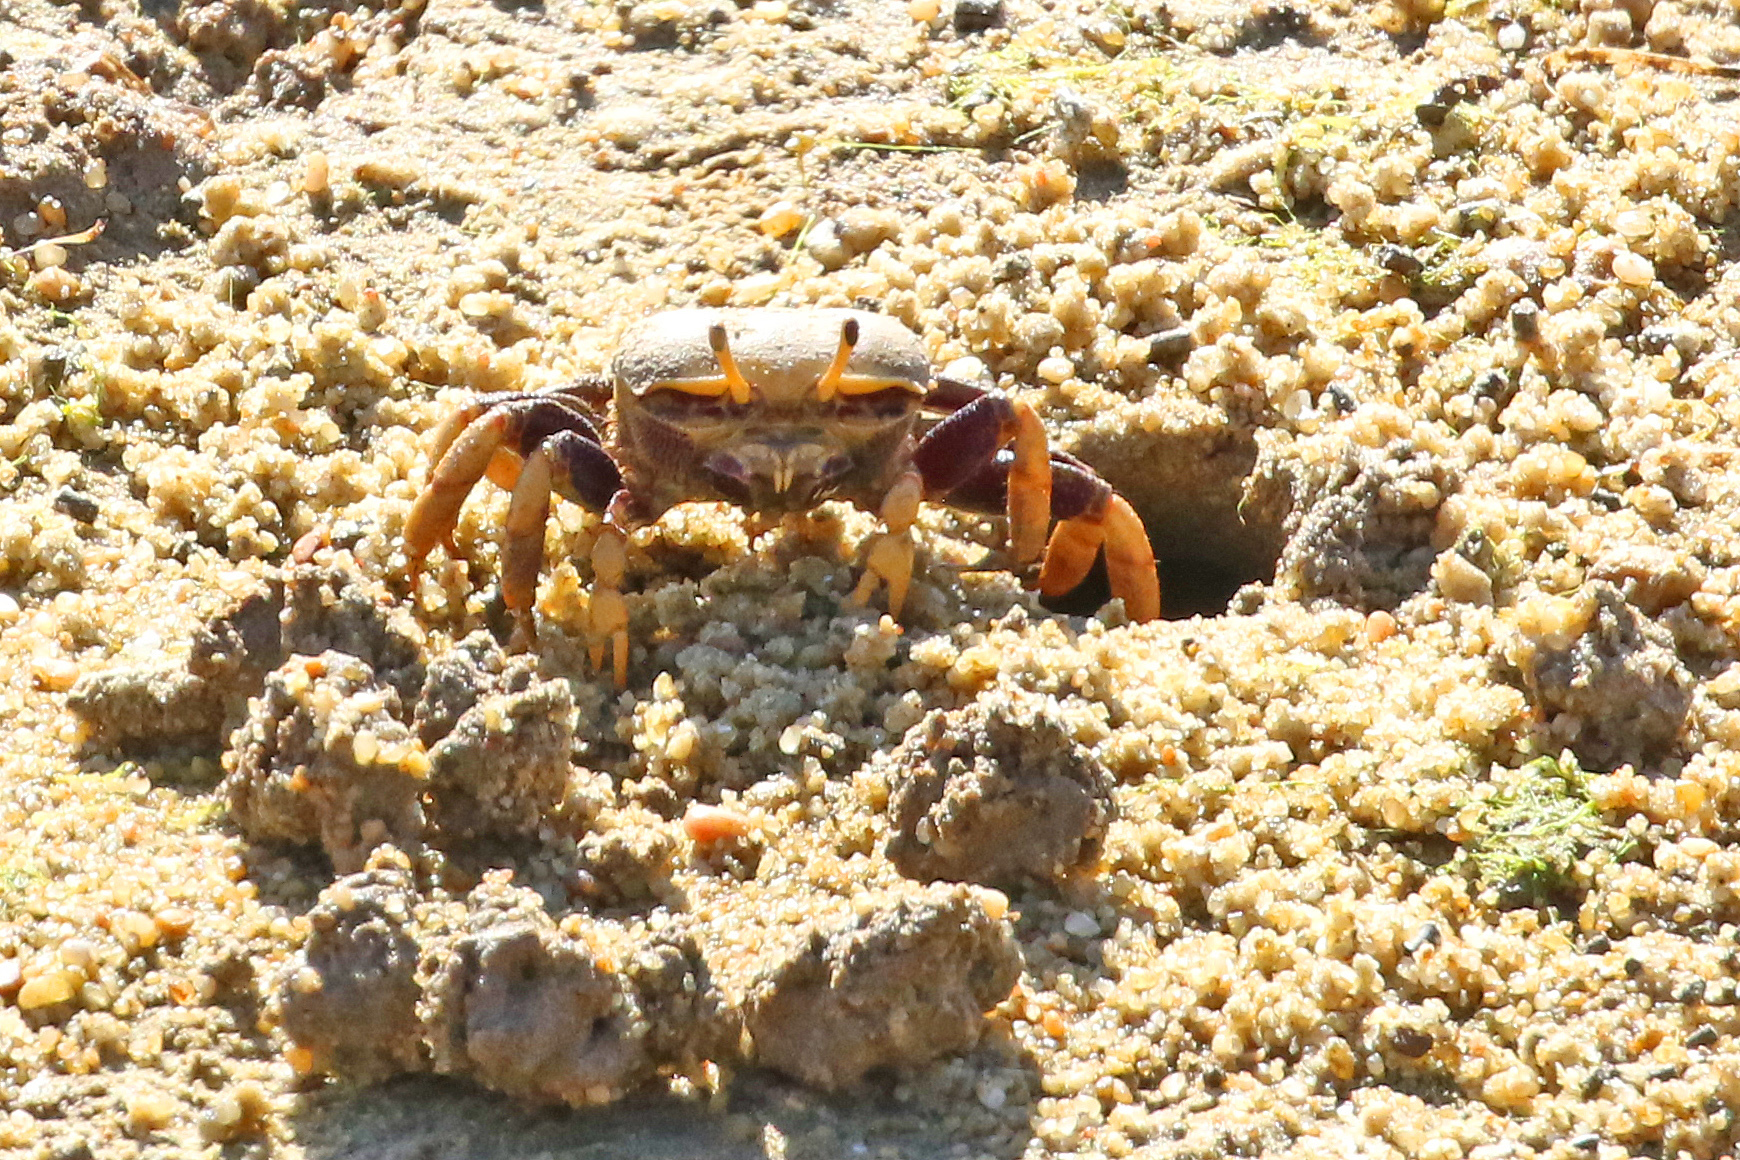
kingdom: Animalia
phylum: Arthropoda
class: Malacostraca
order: Decapoda
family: Ocypodidae
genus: Afruca
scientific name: Afruca tangeri
